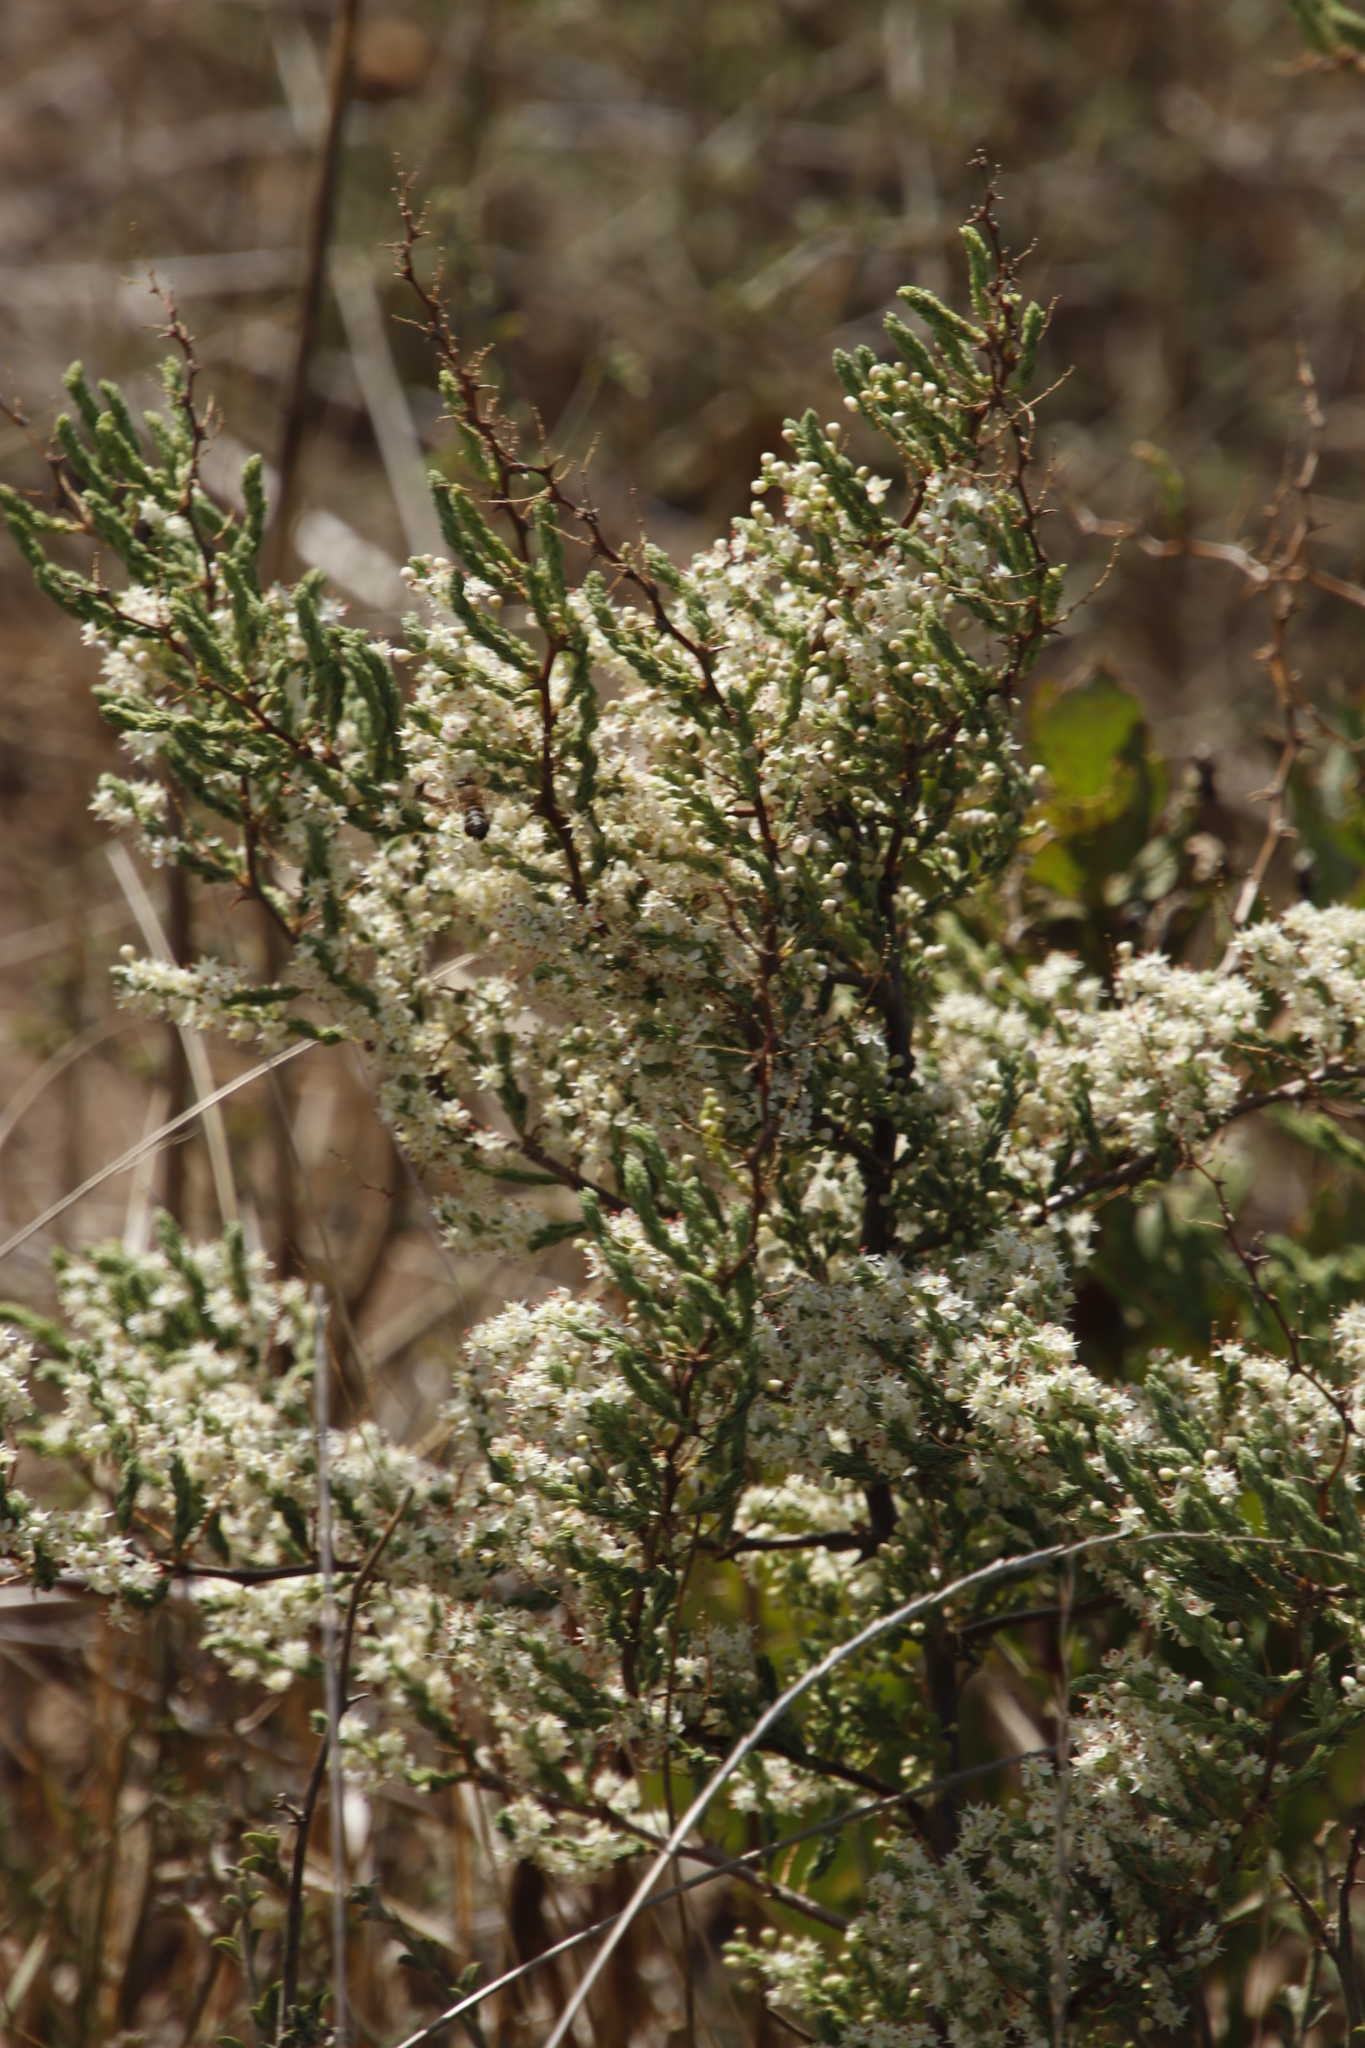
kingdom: Plantae
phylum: Tracheophyta
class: Liliopsida
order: Asparagales
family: Asparagaceae
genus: Asparagus
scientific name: Asparagus rubicundus
